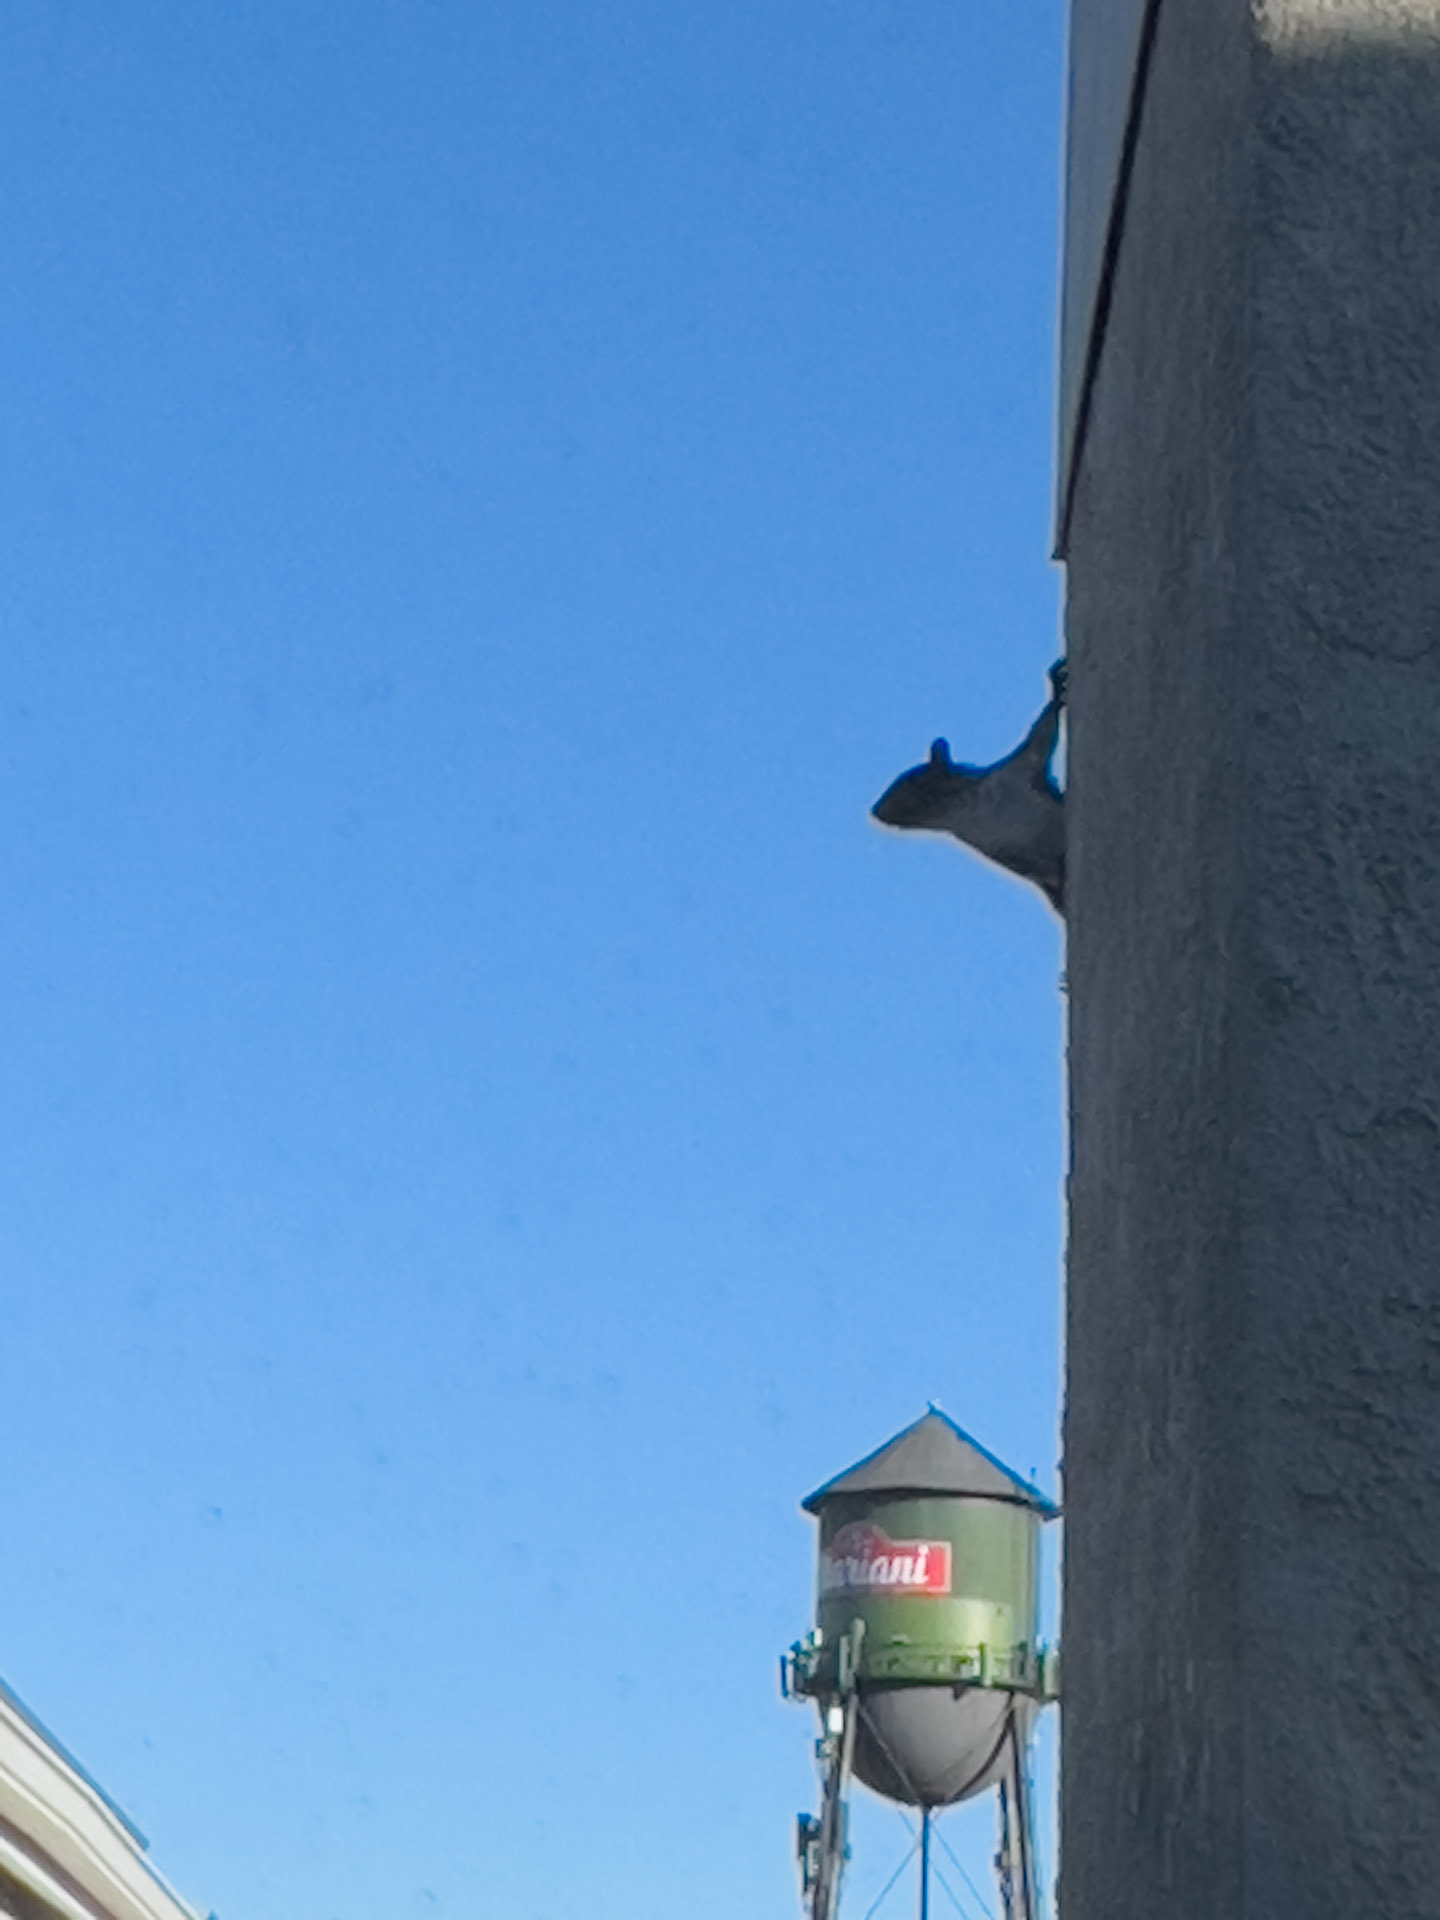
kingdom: Animalia
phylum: Chordata
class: Mammalia
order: Rodentia
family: Sciuridae
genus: Sciurus
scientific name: Sciurus carolinensis
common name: Eastern gray squirrel
